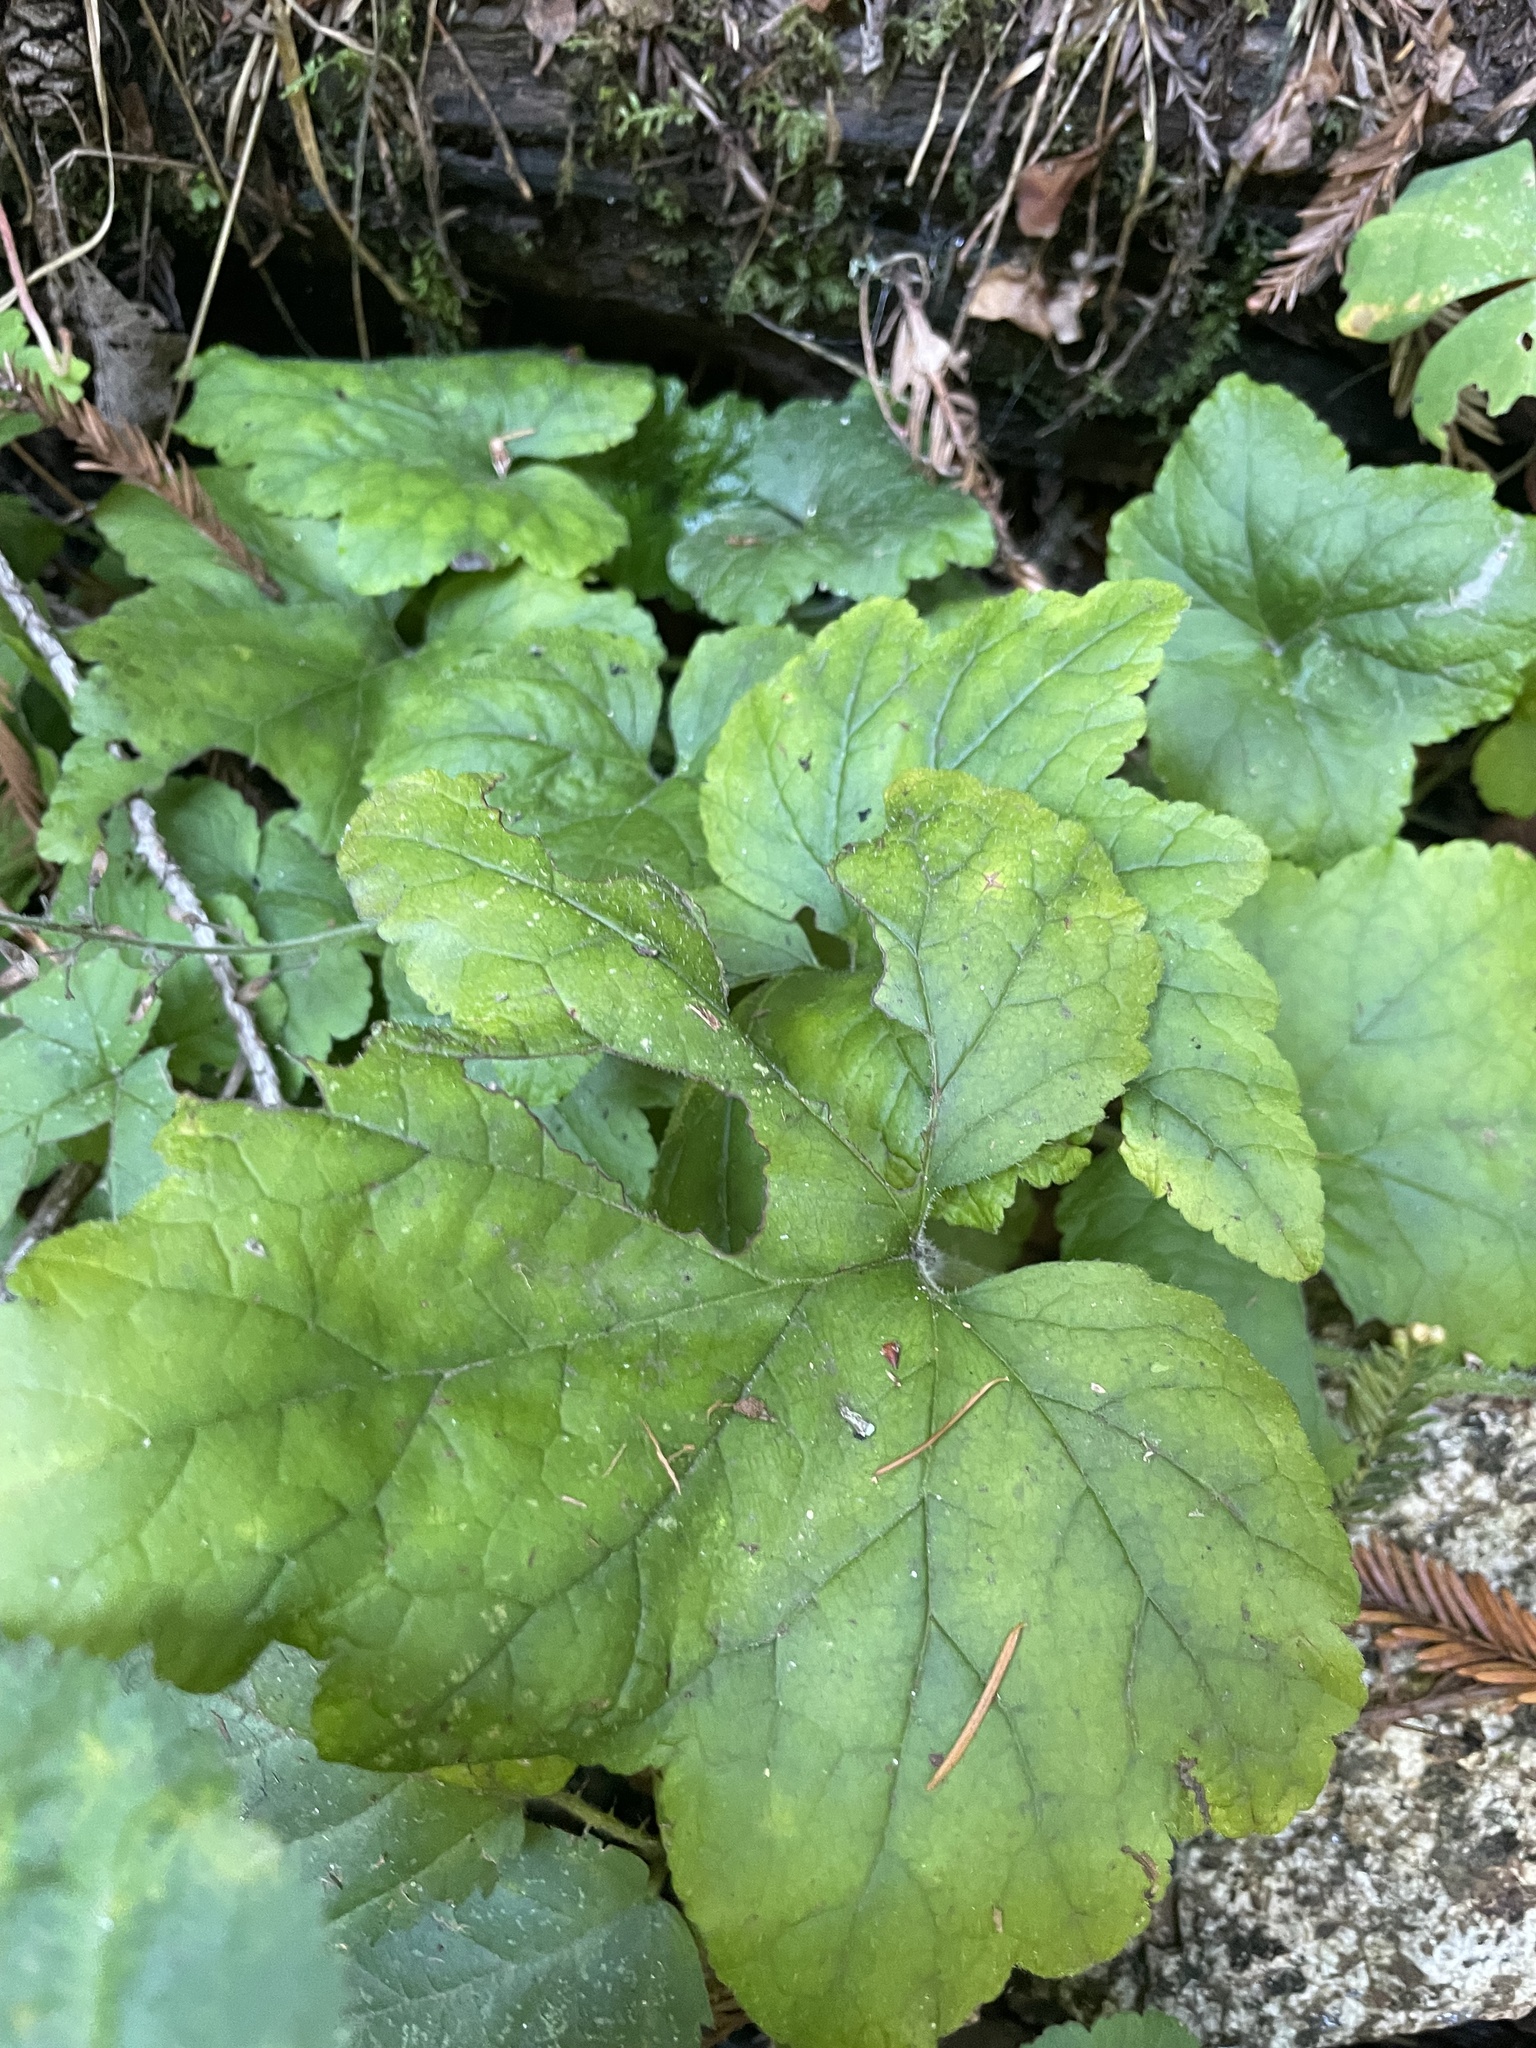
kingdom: Plantae
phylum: Tracheophyta
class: Magnoliopsida
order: Saxifragales
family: Saxifragaceae
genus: Tiarella
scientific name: Tiarella trifoliata
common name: Sugar-scoop
